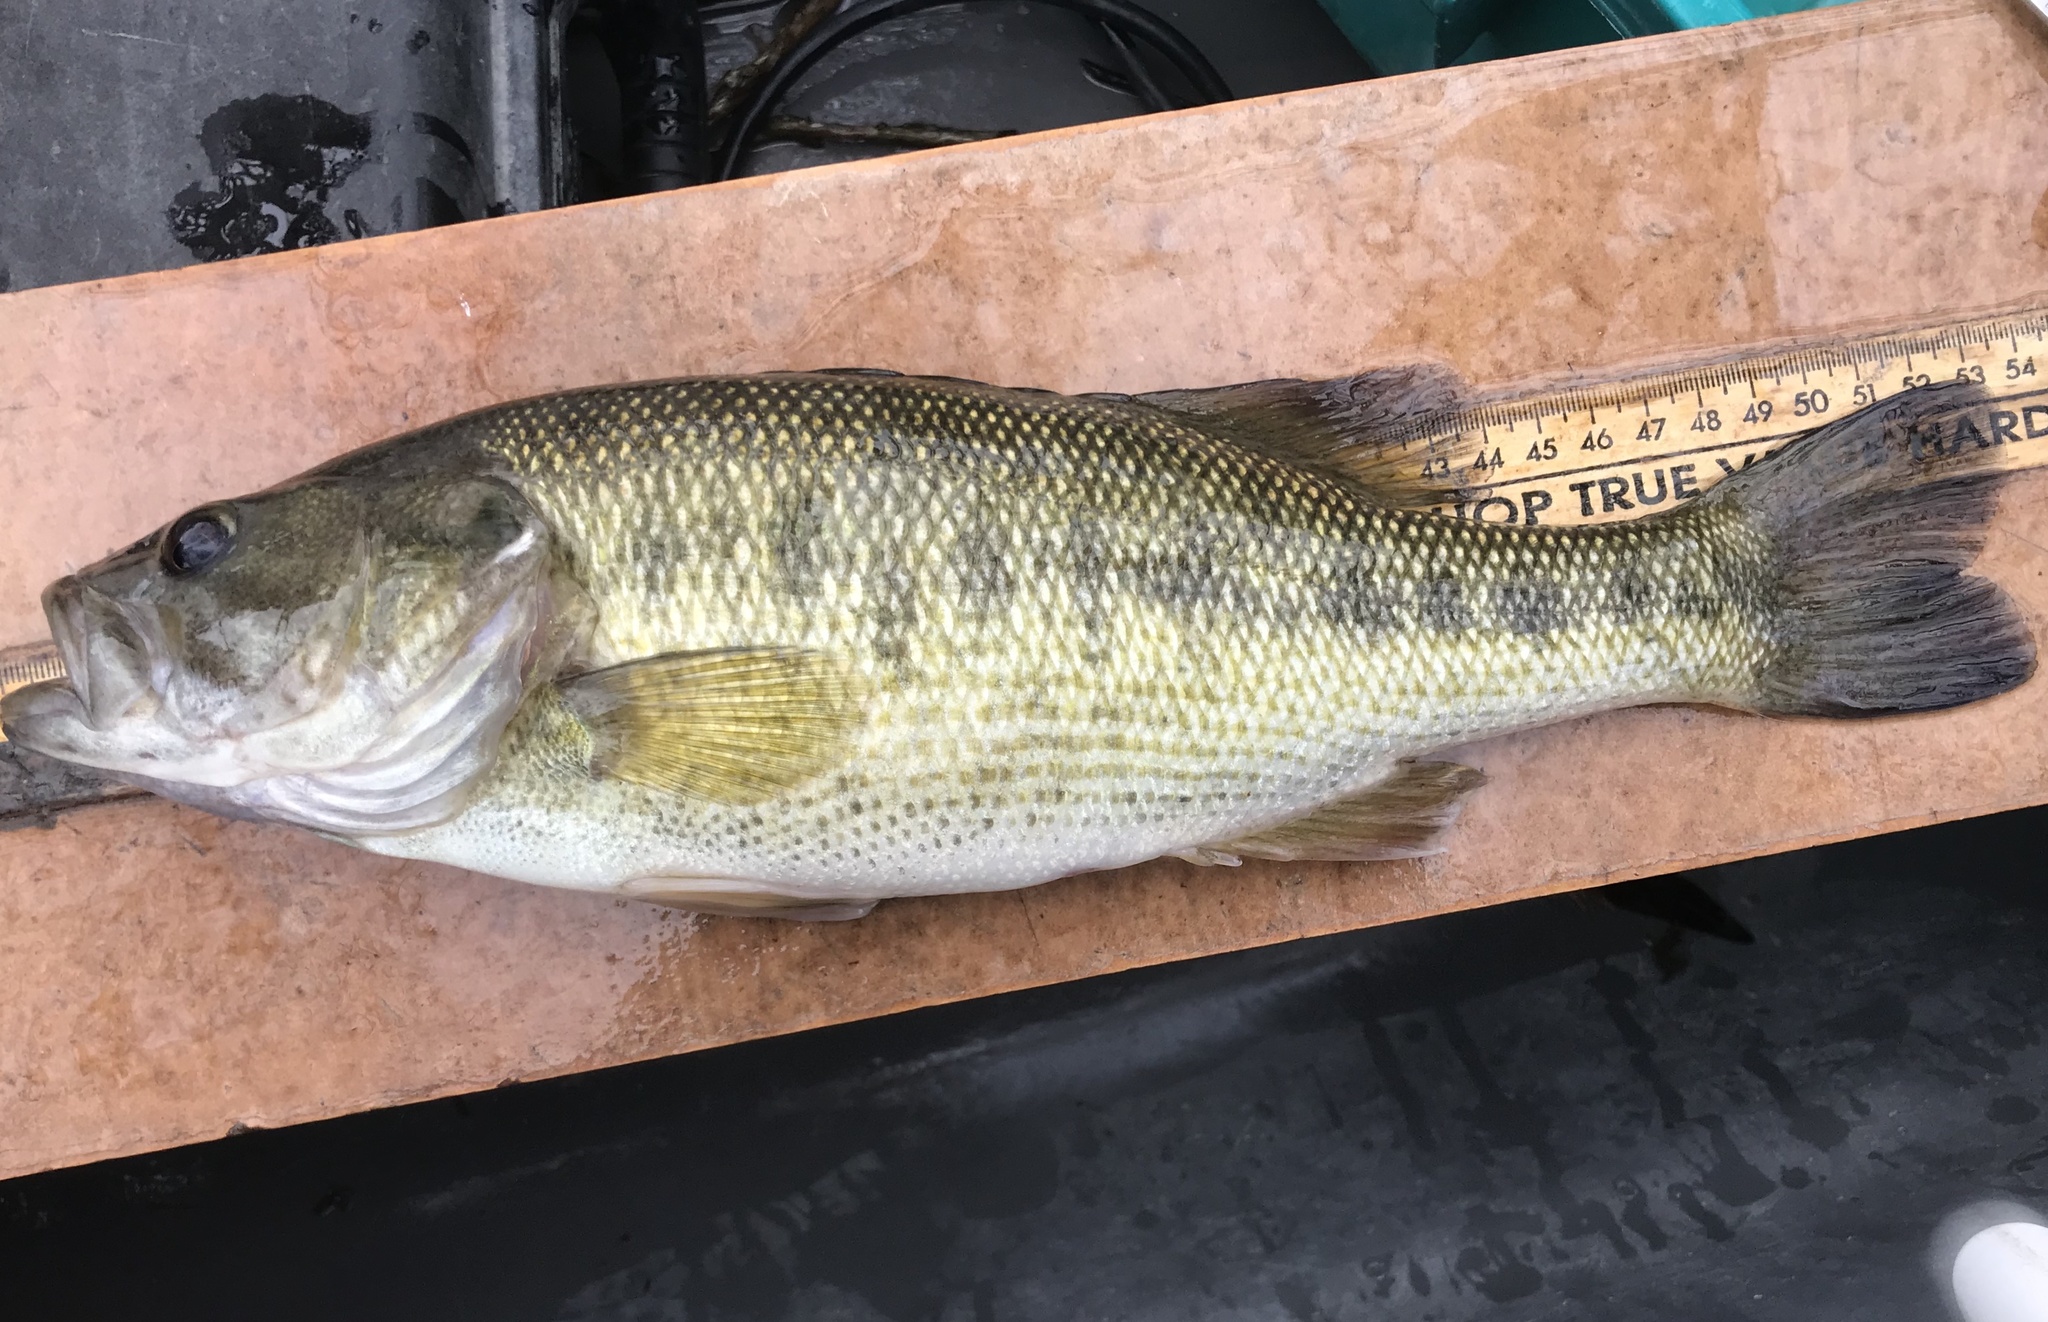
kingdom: Animalia
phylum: Chordata
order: Perciformes
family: Centrarchidae
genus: Micropterus
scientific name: Micropterus treculii
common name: Guadalupe bass
